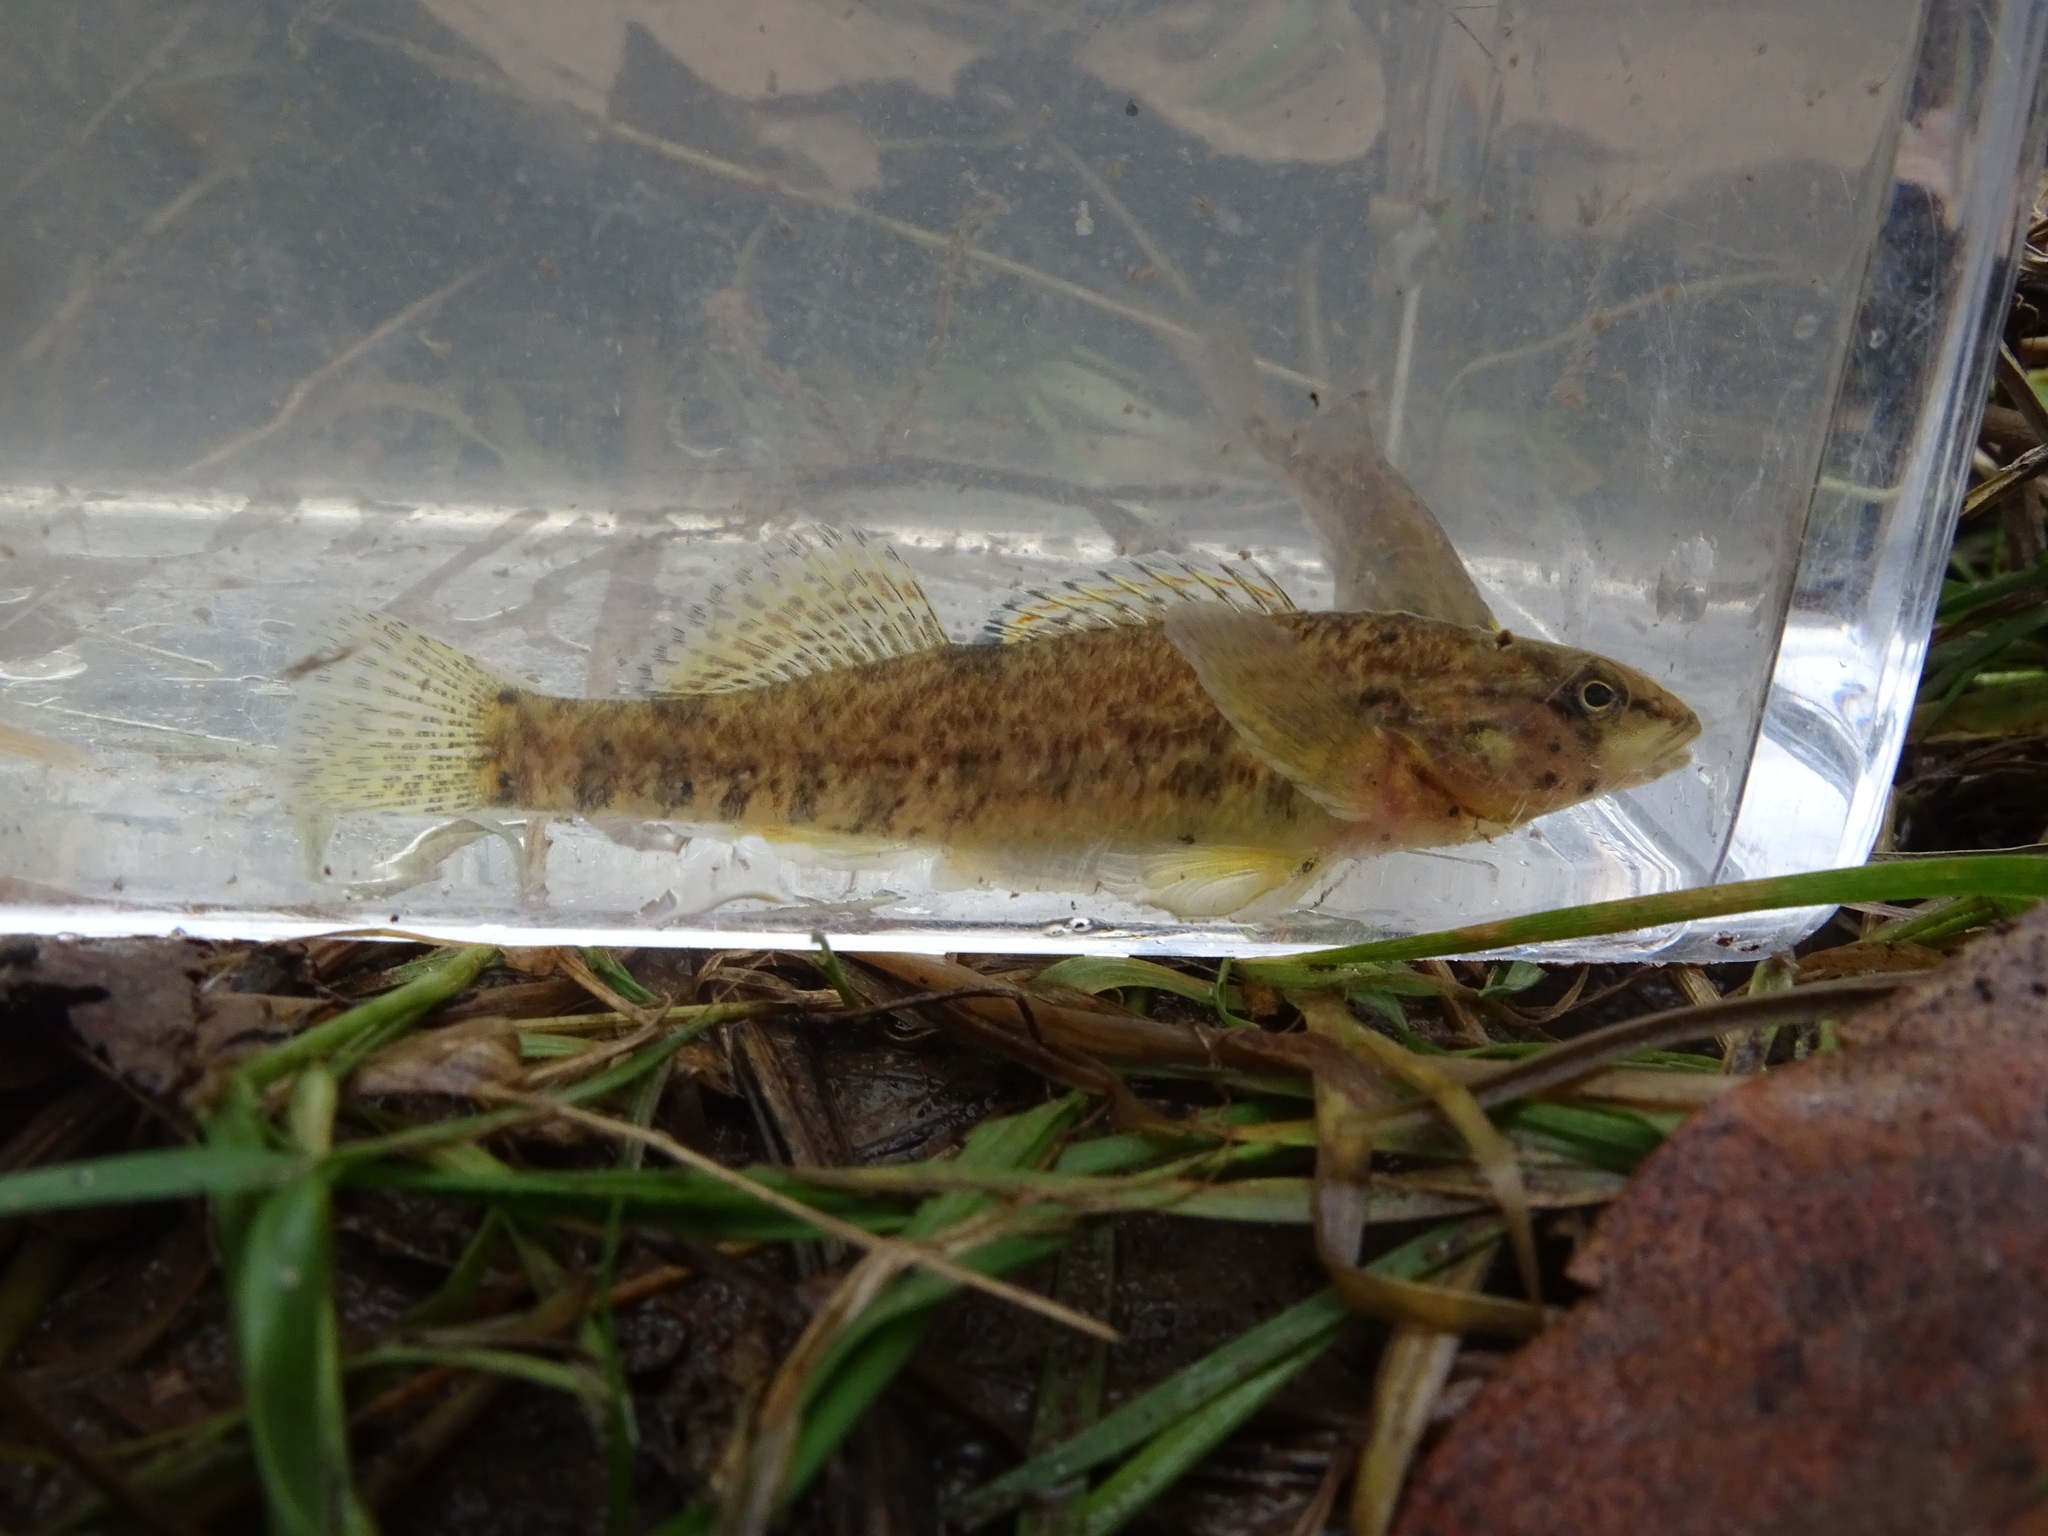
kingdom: Animalia
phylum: Chordata
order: Perciformes
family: Percidae
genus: Etheostoma
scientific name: Etheostoma caeruleum
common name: Rainbow darter
